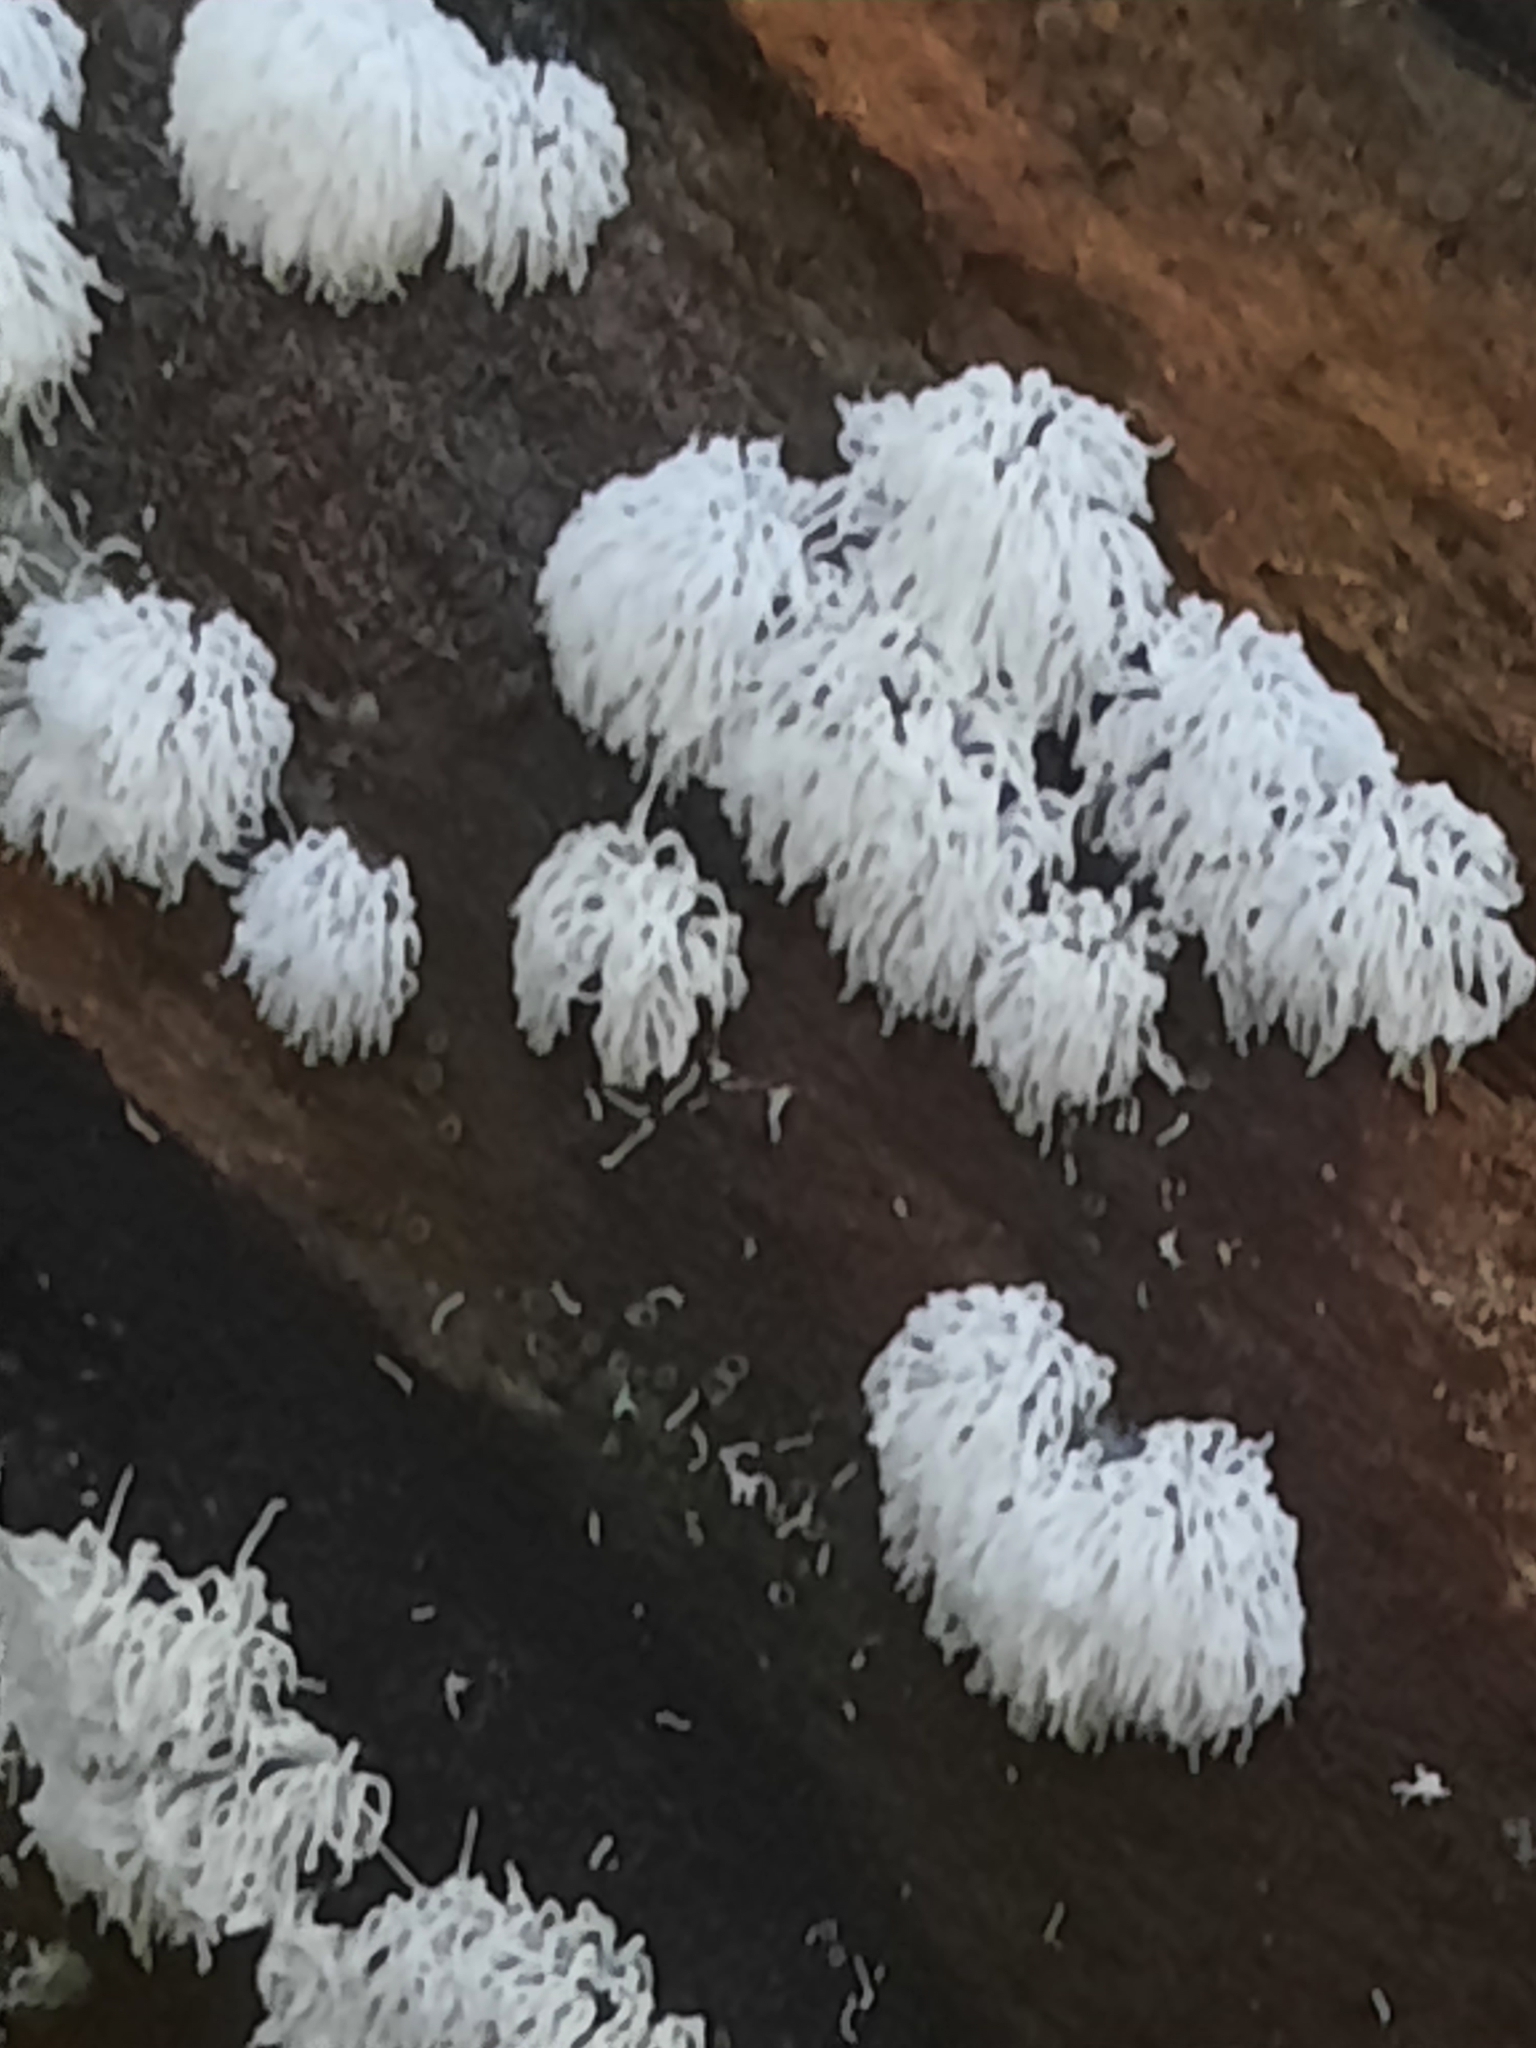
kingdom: Protozoa
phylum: Mycetozoa
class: Protosteliomycetes
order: Ceratiomyxales
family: Ceratiomyxaceae
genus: Ceratiomyxa
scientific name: Ceratiomyxa fruticulosa
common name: Honeycomb coral slime mold
